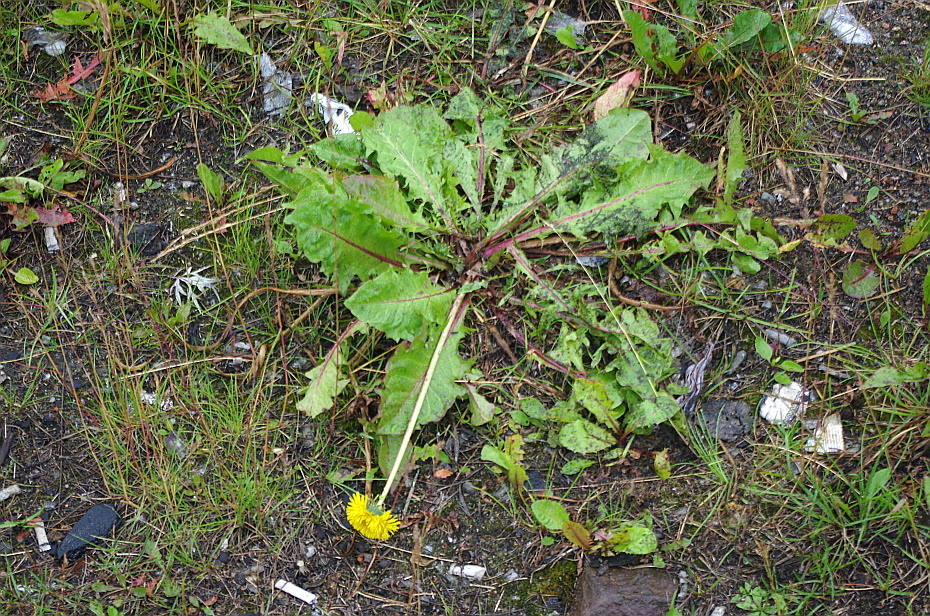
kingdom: Plantae
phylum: Tracheophyta
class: Magnoliopsida
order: Asterales
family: Asteraceae
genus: Taraxacum
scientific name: Taraxacum officinale
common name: Common dandelion
